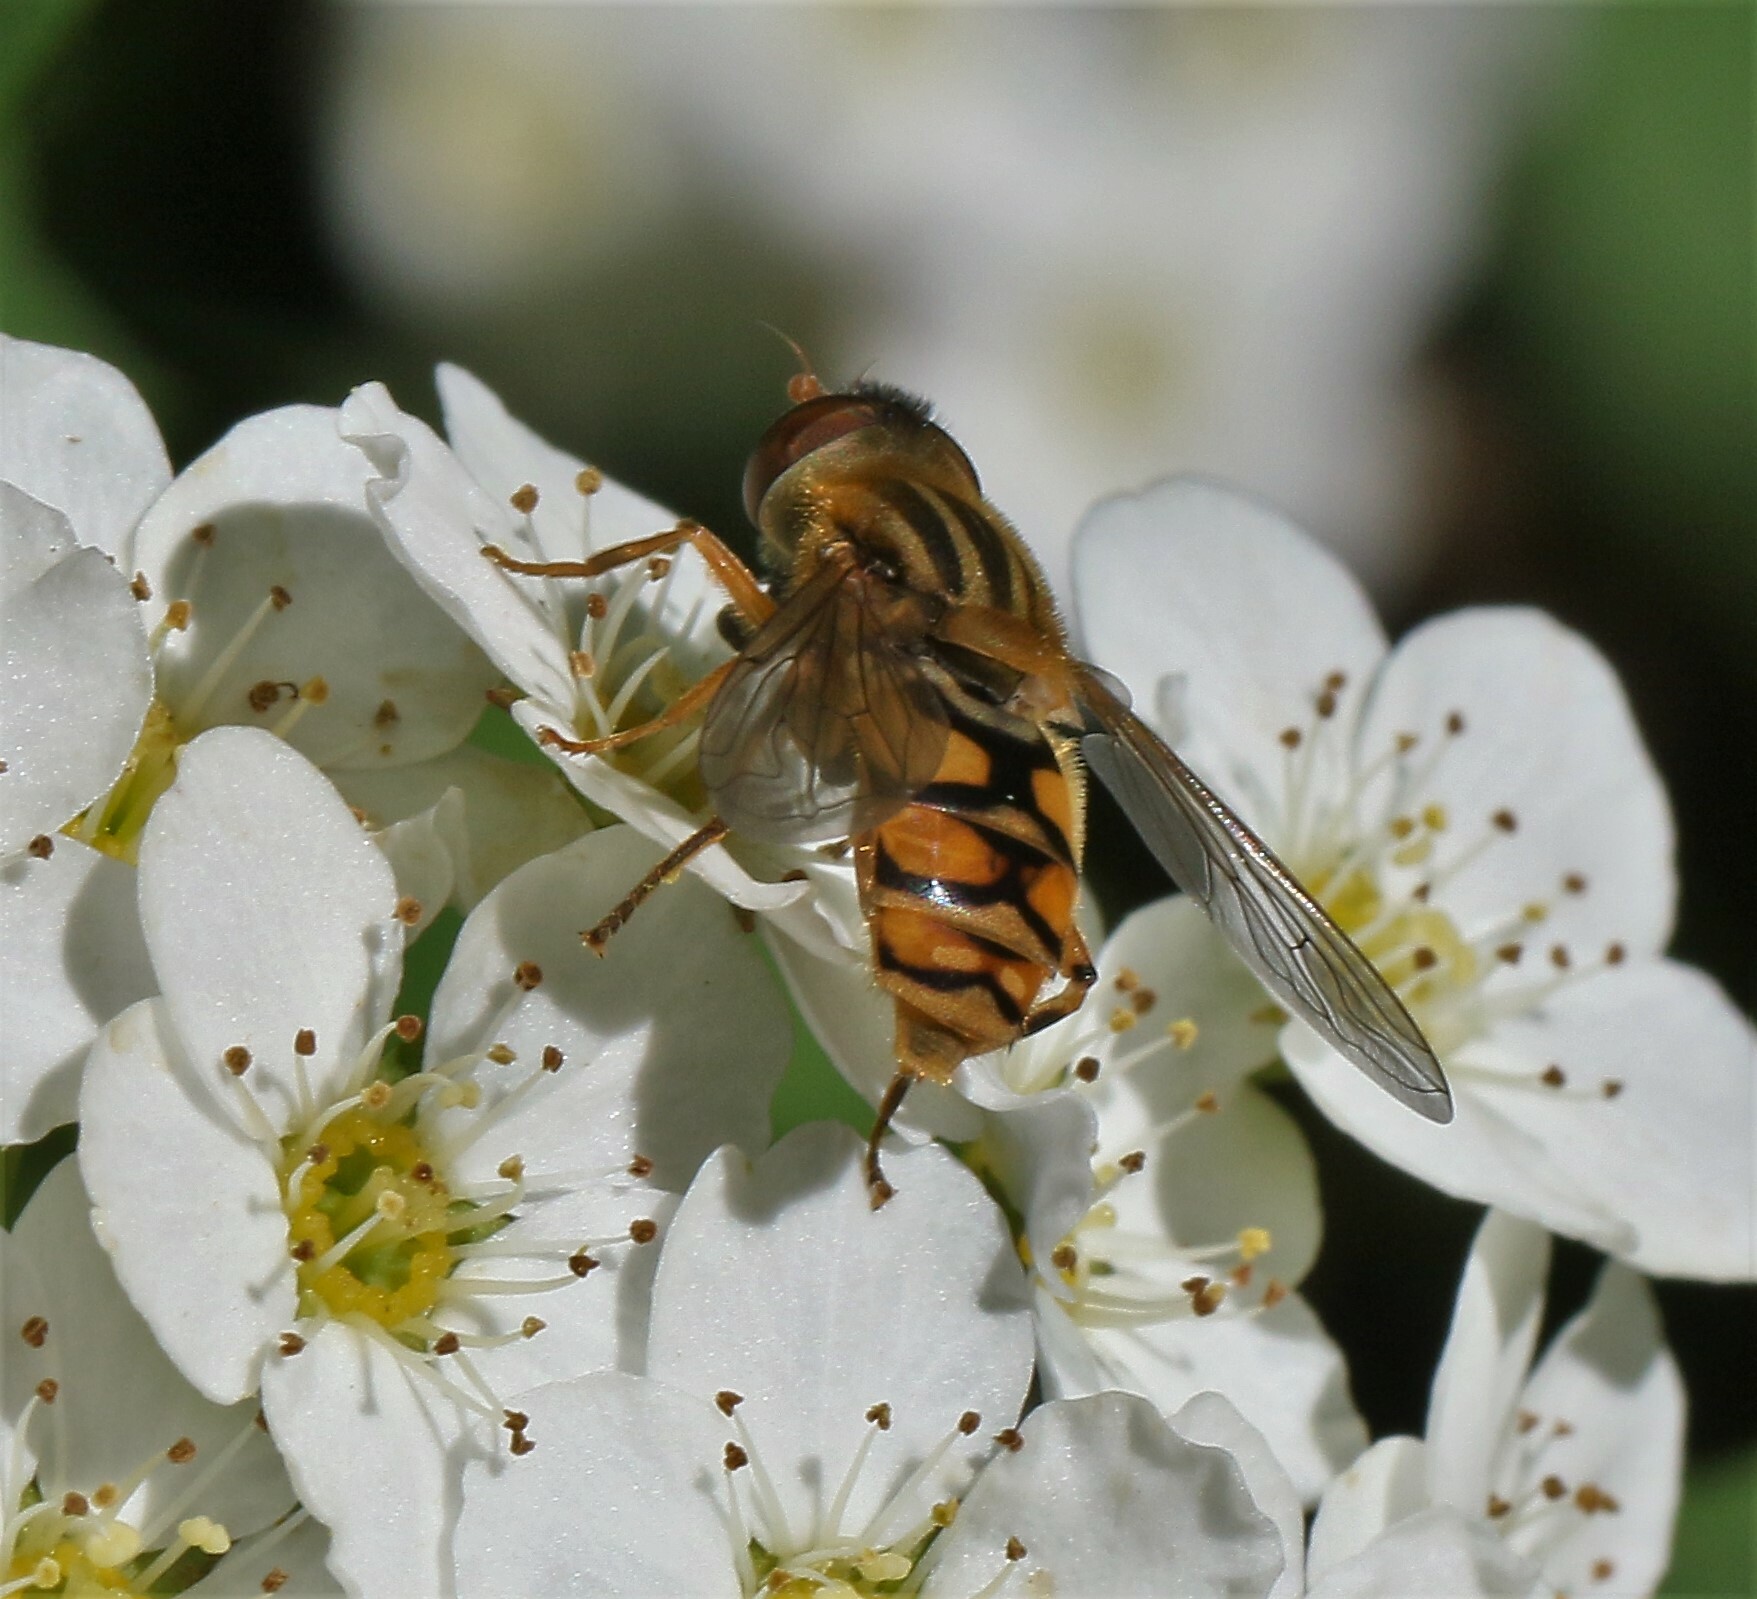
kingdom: Animalia
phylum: Arthropoda
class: Insecta
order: Diptera
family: Syrphidae
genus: Parhelophilus
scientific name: Parhelophilus laetus
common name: Common bog fly
